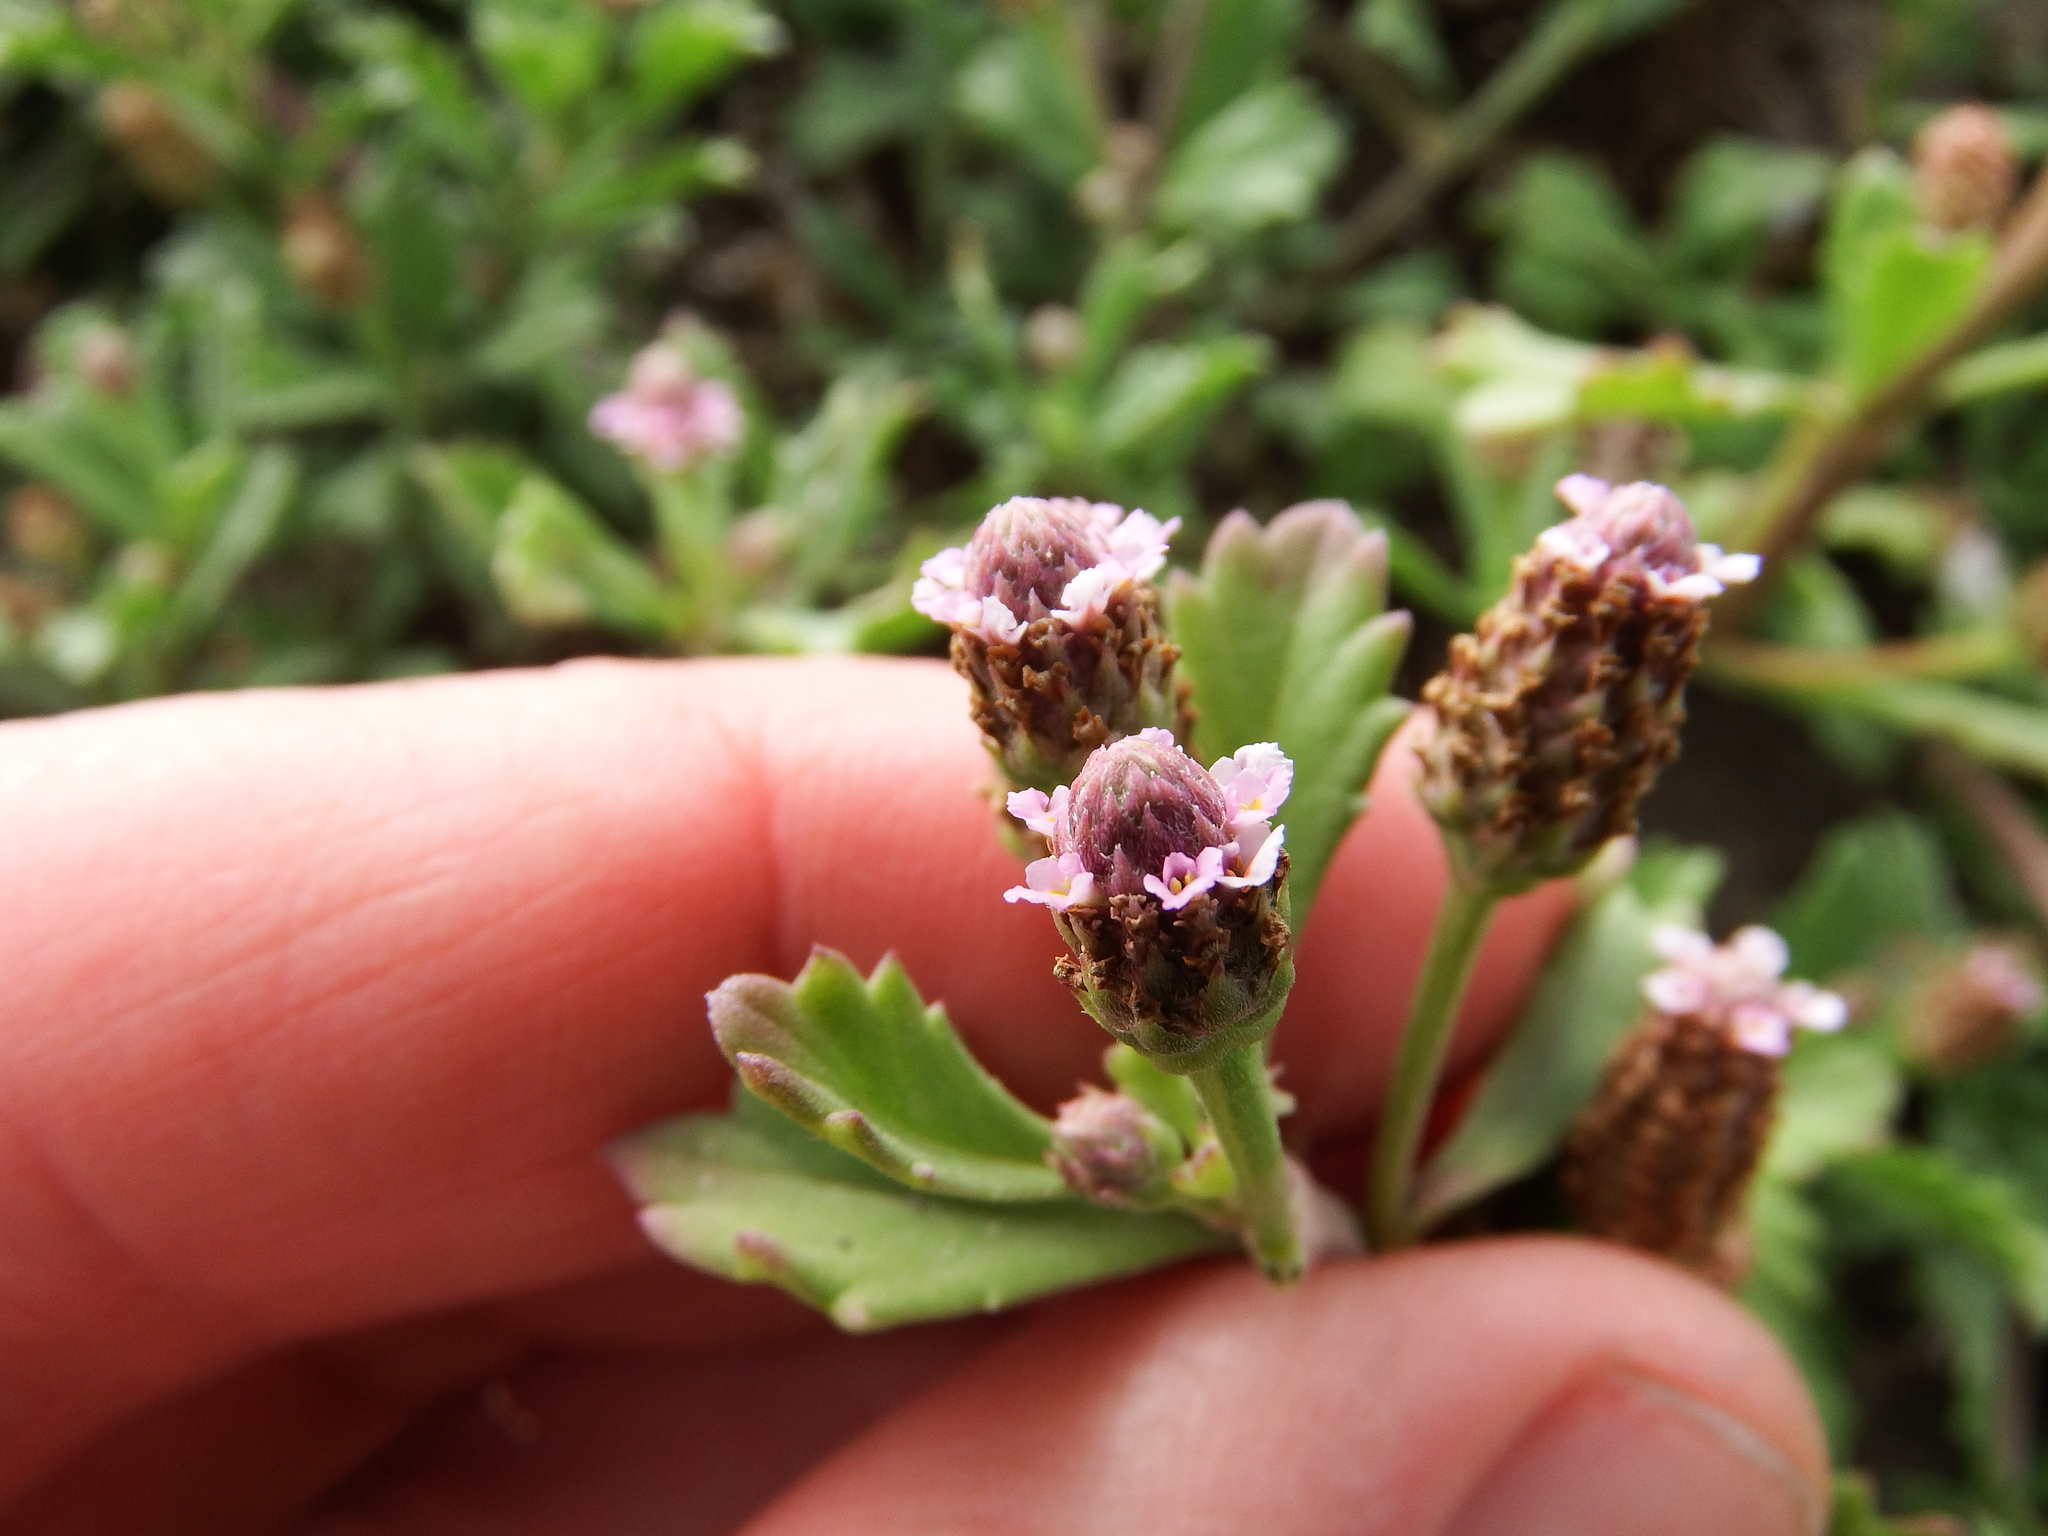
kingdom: Plantae
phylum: Tracheophyta
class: Magnoliopsida
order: Lamiales
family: Verbenaceae
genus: Phyla
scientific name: Phyla nodiflora
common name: Frogfruit
